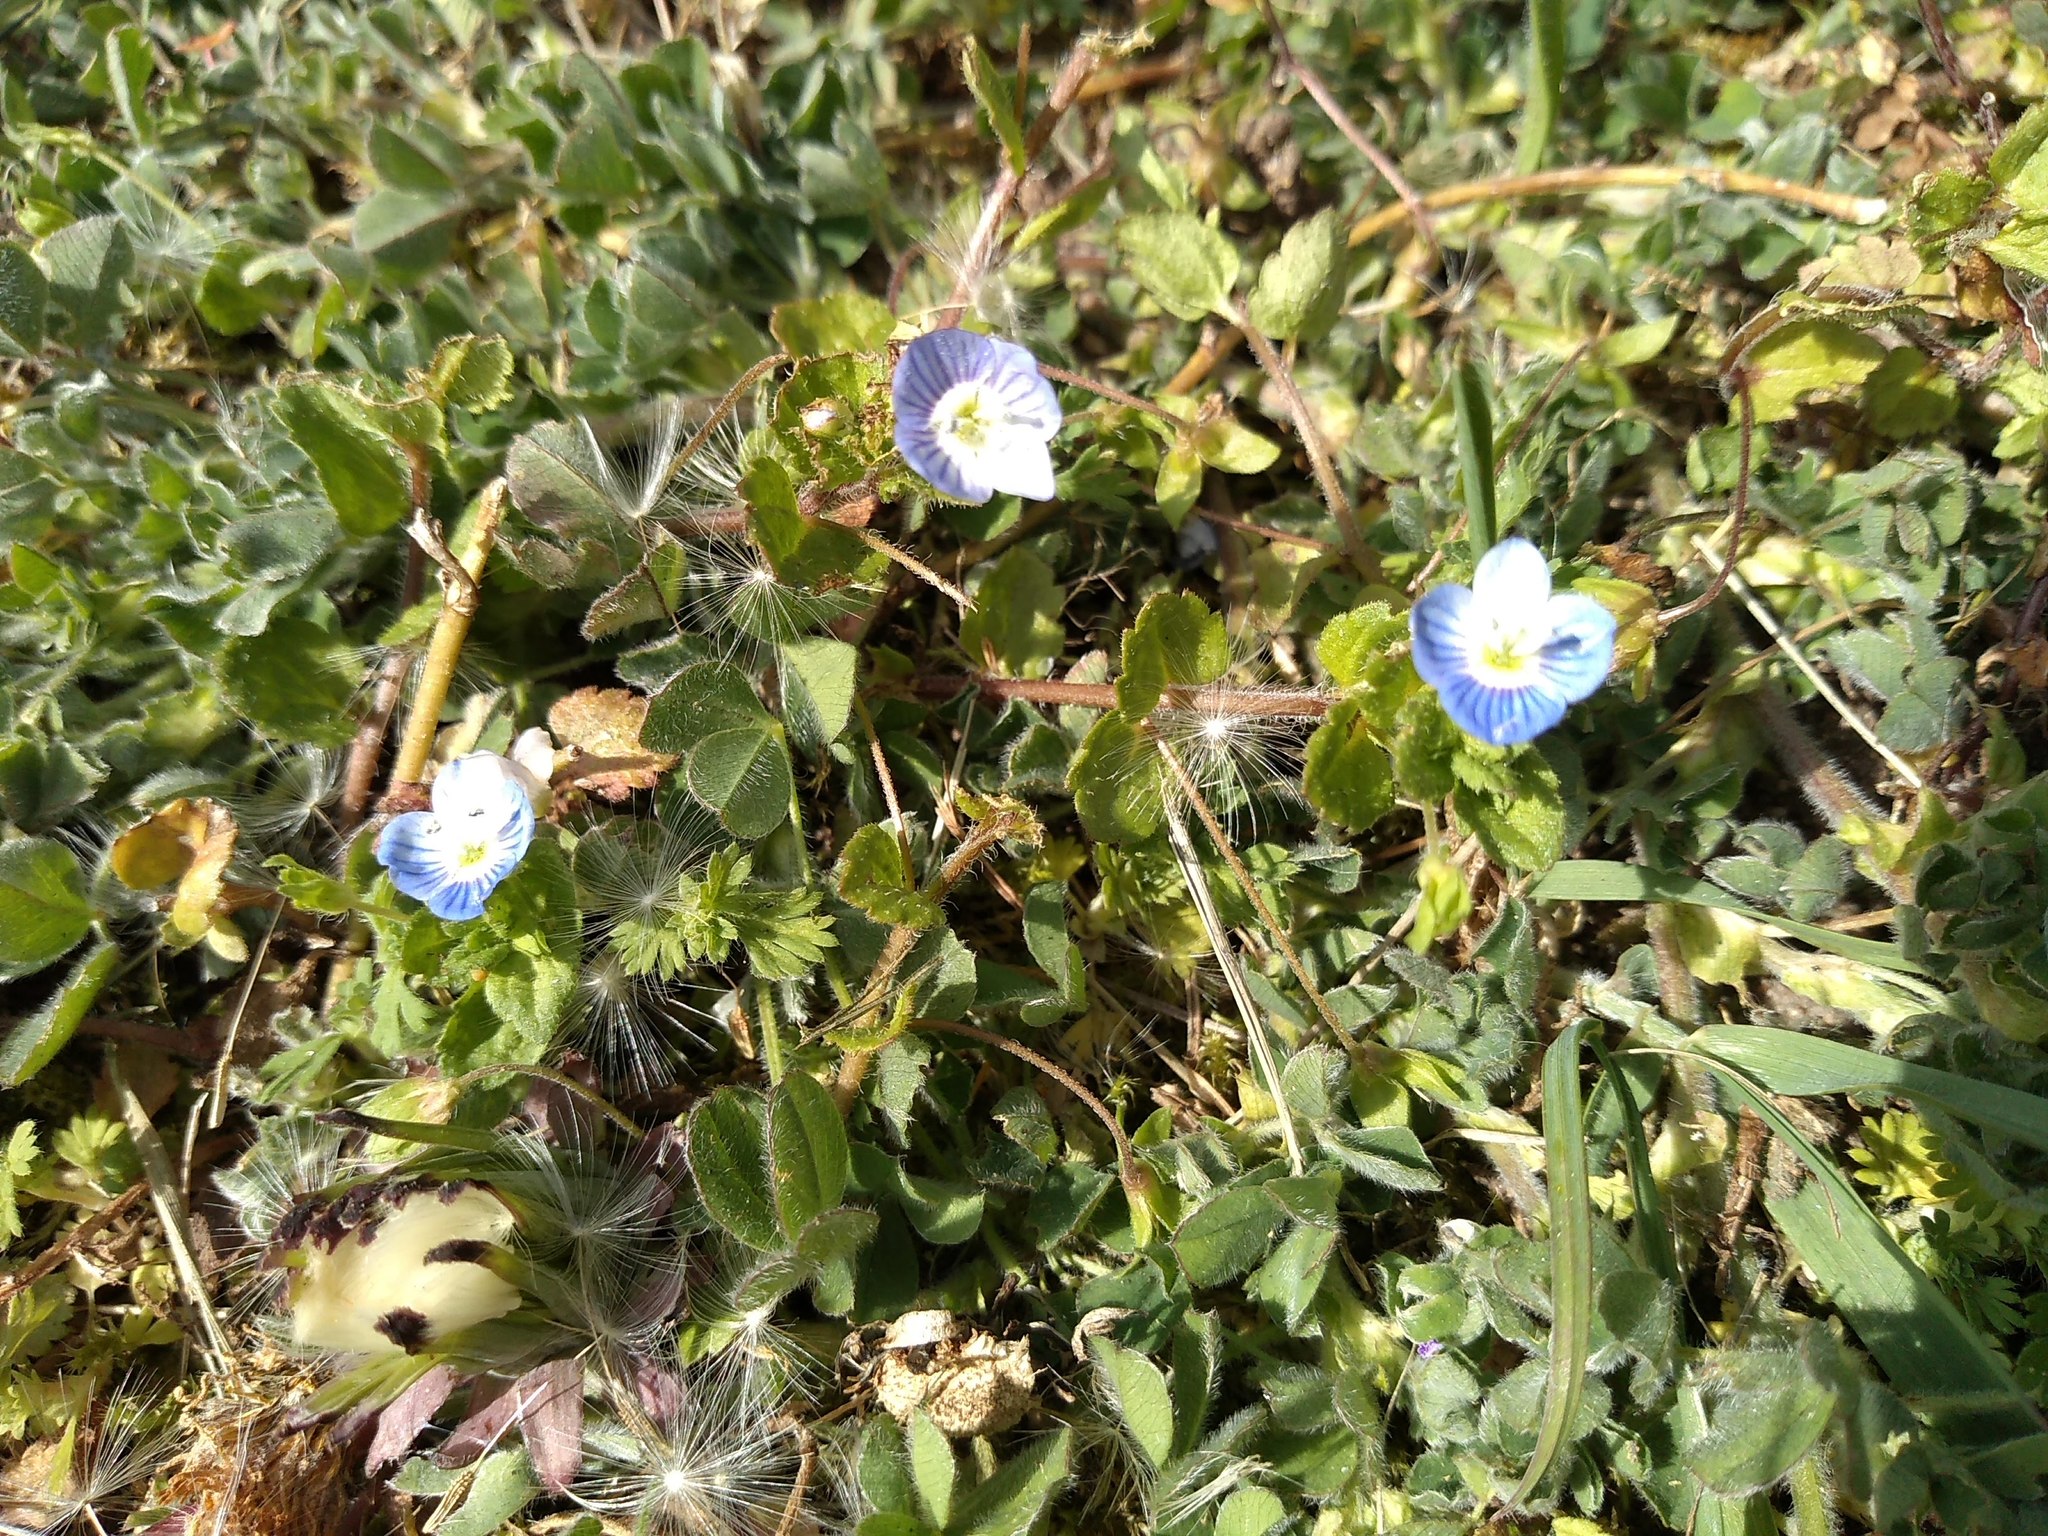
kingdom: Plantae
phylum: Tracheophyta
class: Magnoliopsida
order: Lamiales
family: Plantaginaceae
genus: Veronica
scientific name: Veronica persica
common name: Common field-speedwell
